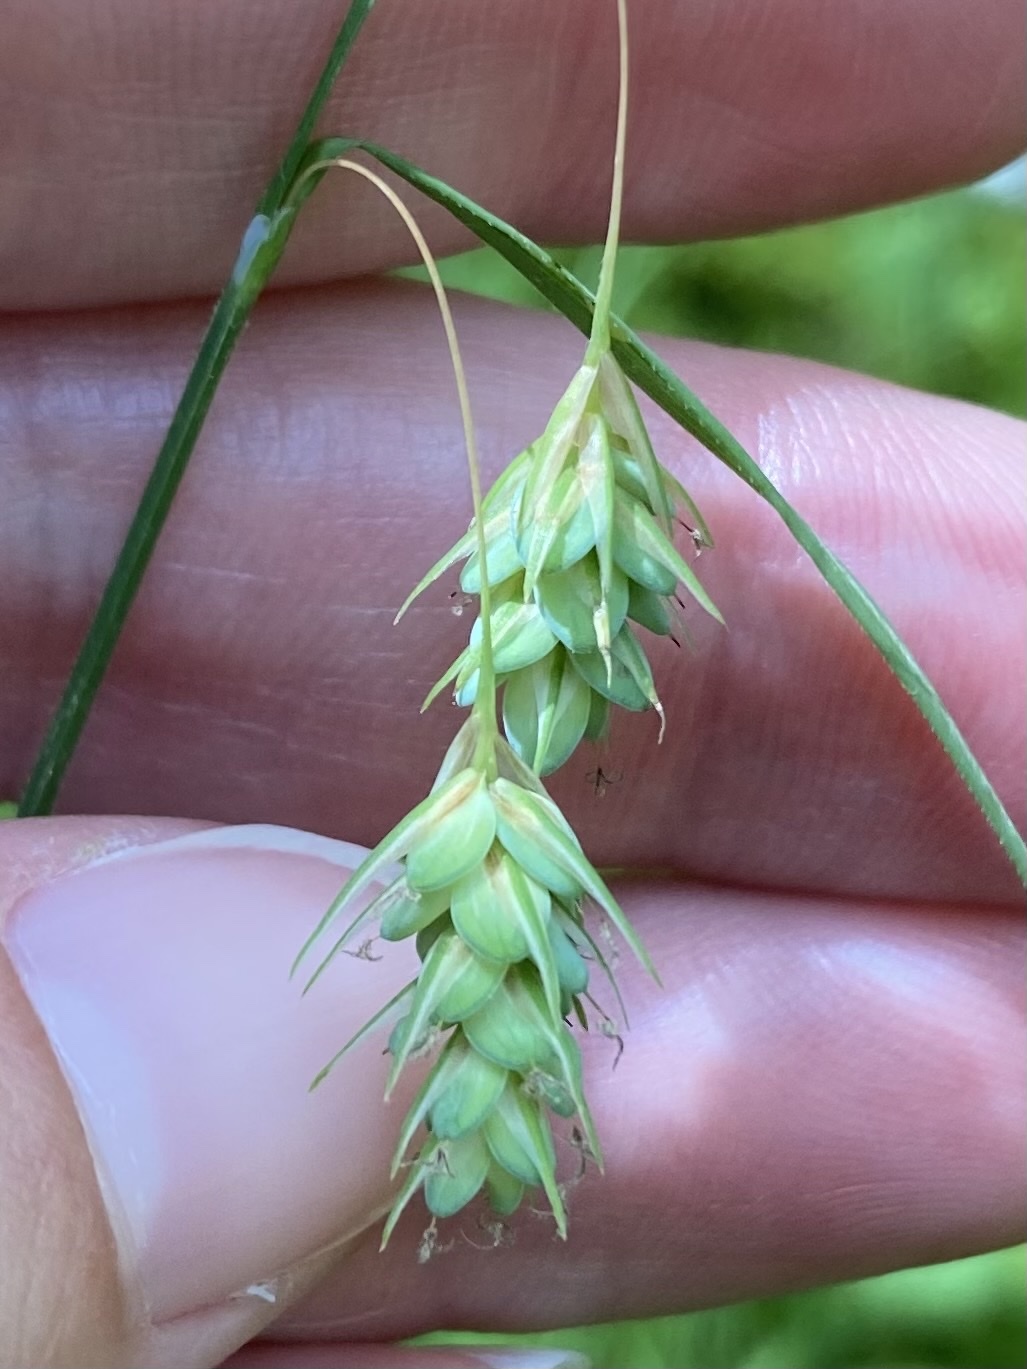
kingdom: Plantae
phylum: Tracheophyta
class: Liliopsida
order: Poales
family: Cyperaceae
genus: Carex
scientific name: Carex magellanica
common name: Bog sedge
